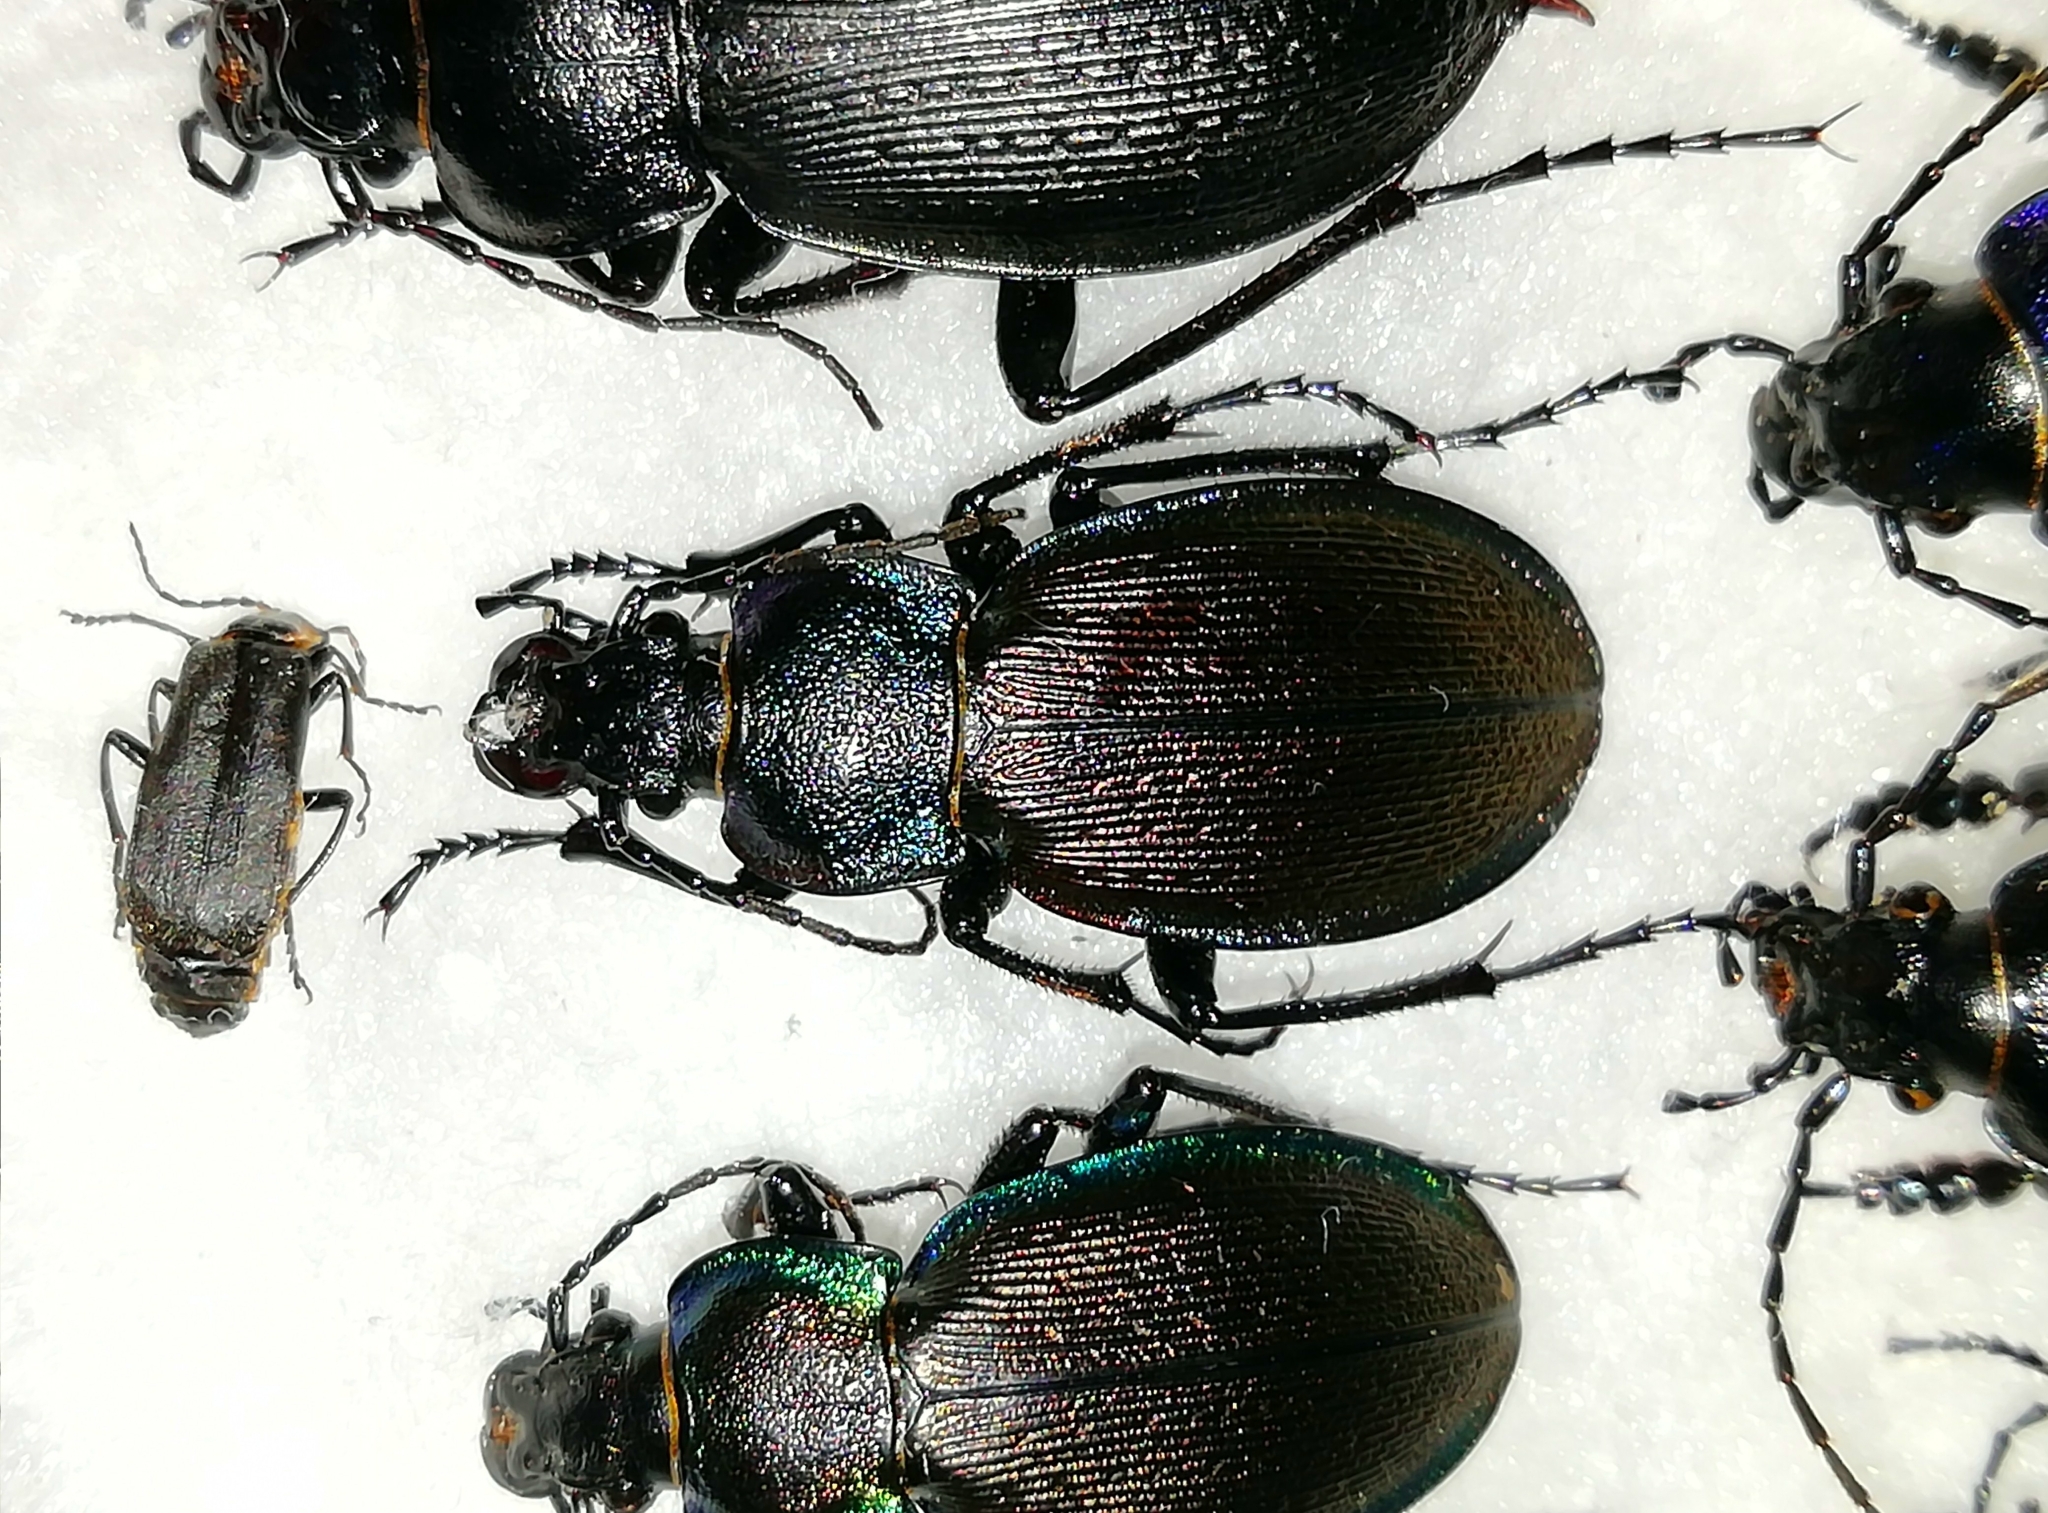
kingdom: Animalia
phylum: Arthropoda
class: Insecta
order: Coleoptera
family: Carabidae
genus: Carabus
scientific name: Carabus regalis
